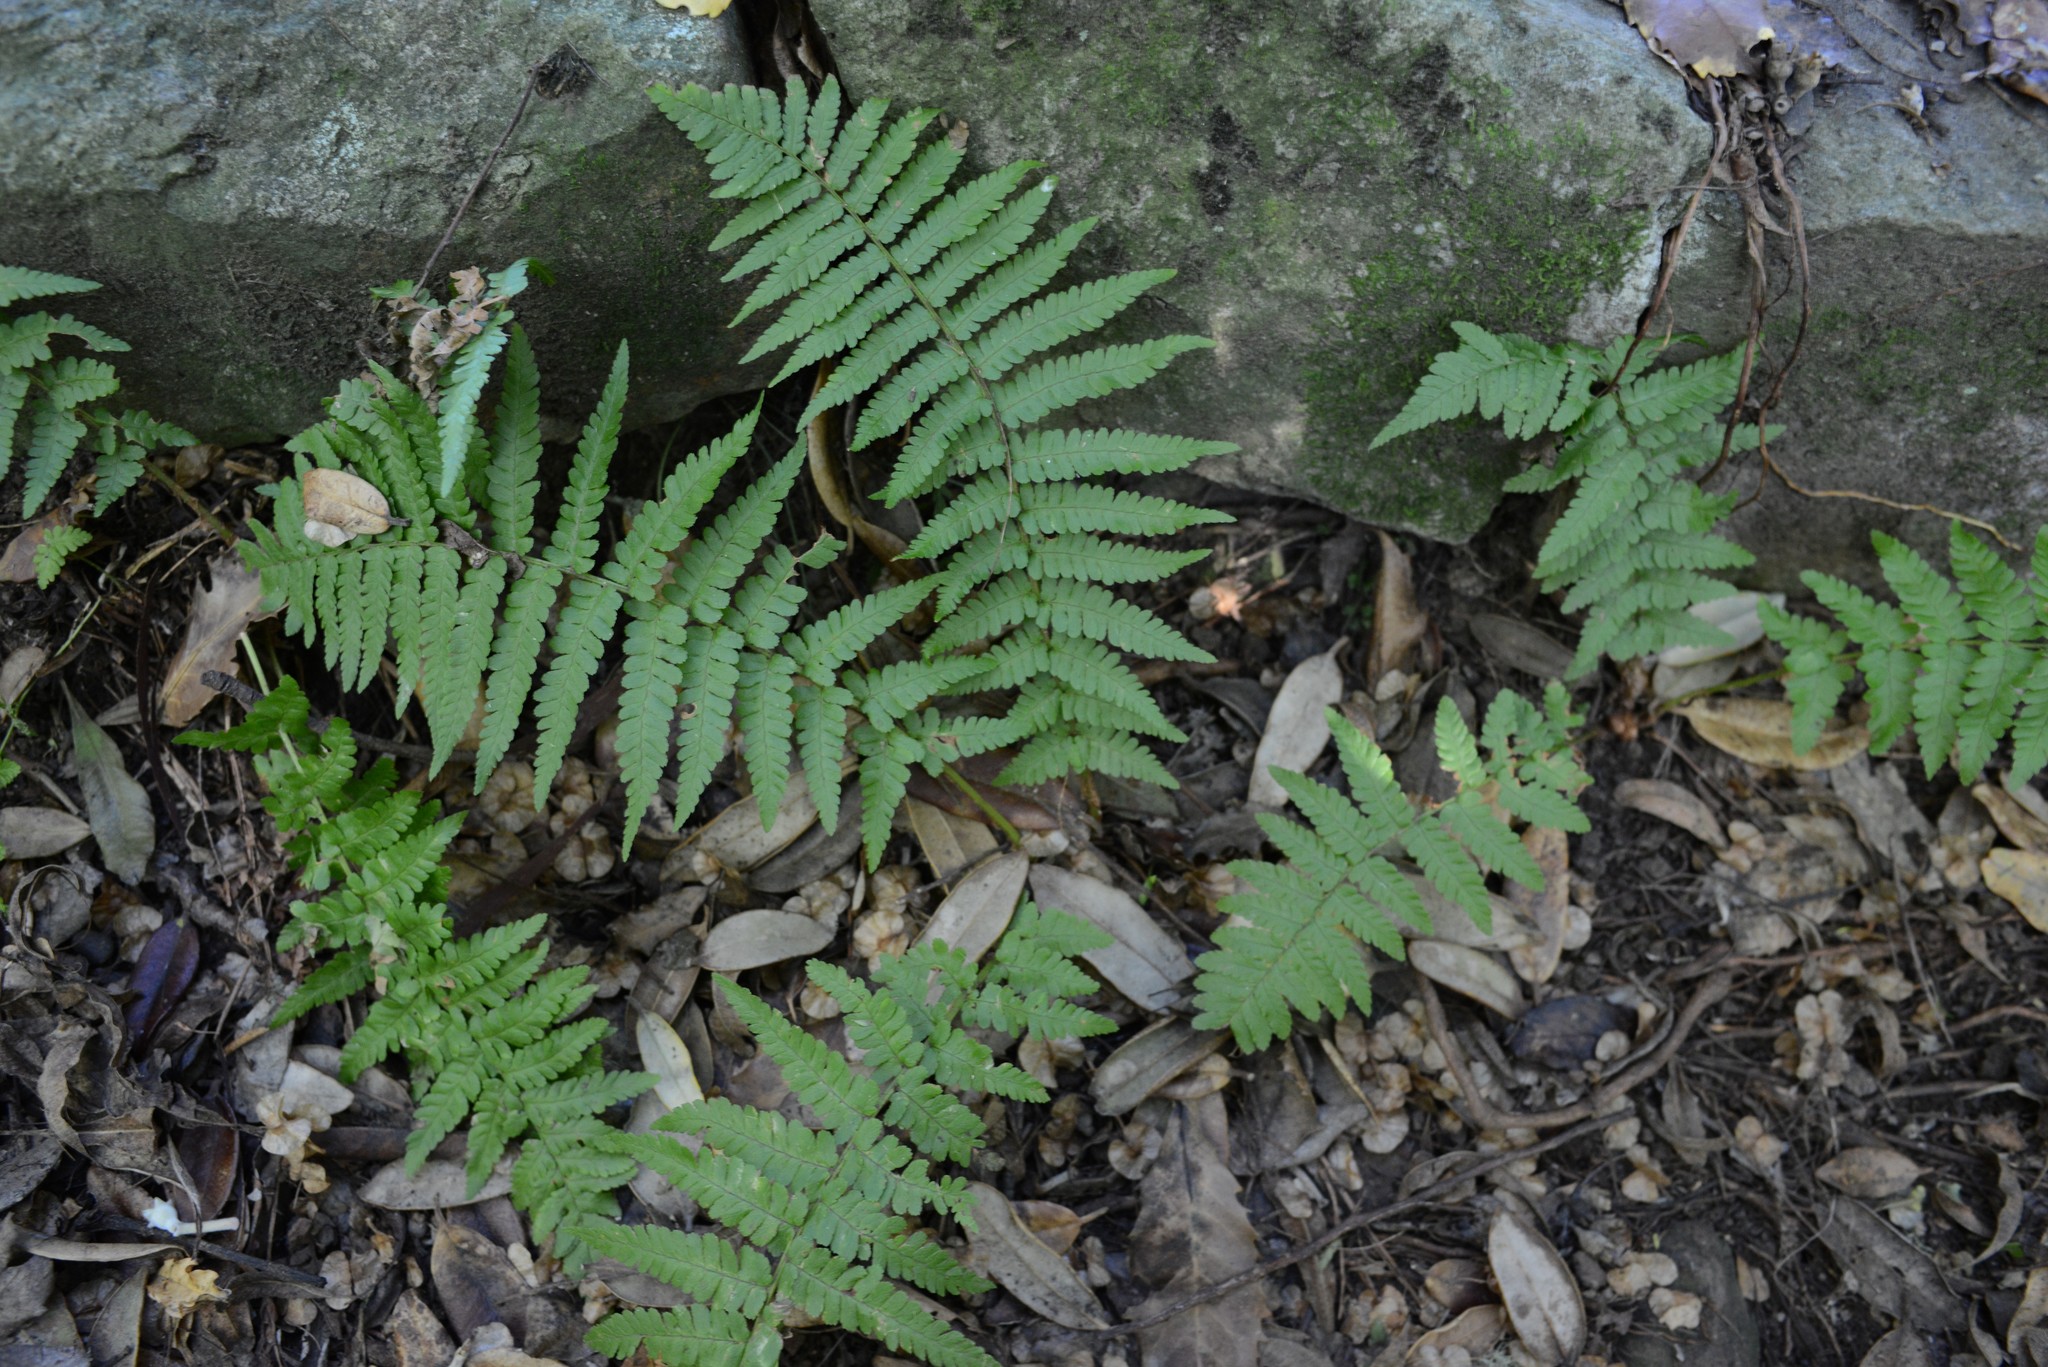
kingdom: Plantae
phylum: Tracheophyta
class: Polypodiopsida
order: Polypodiales
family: Dryopteridaceae
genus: Dryopteris
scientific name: Dryopteris filix-mas
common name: Male fern
